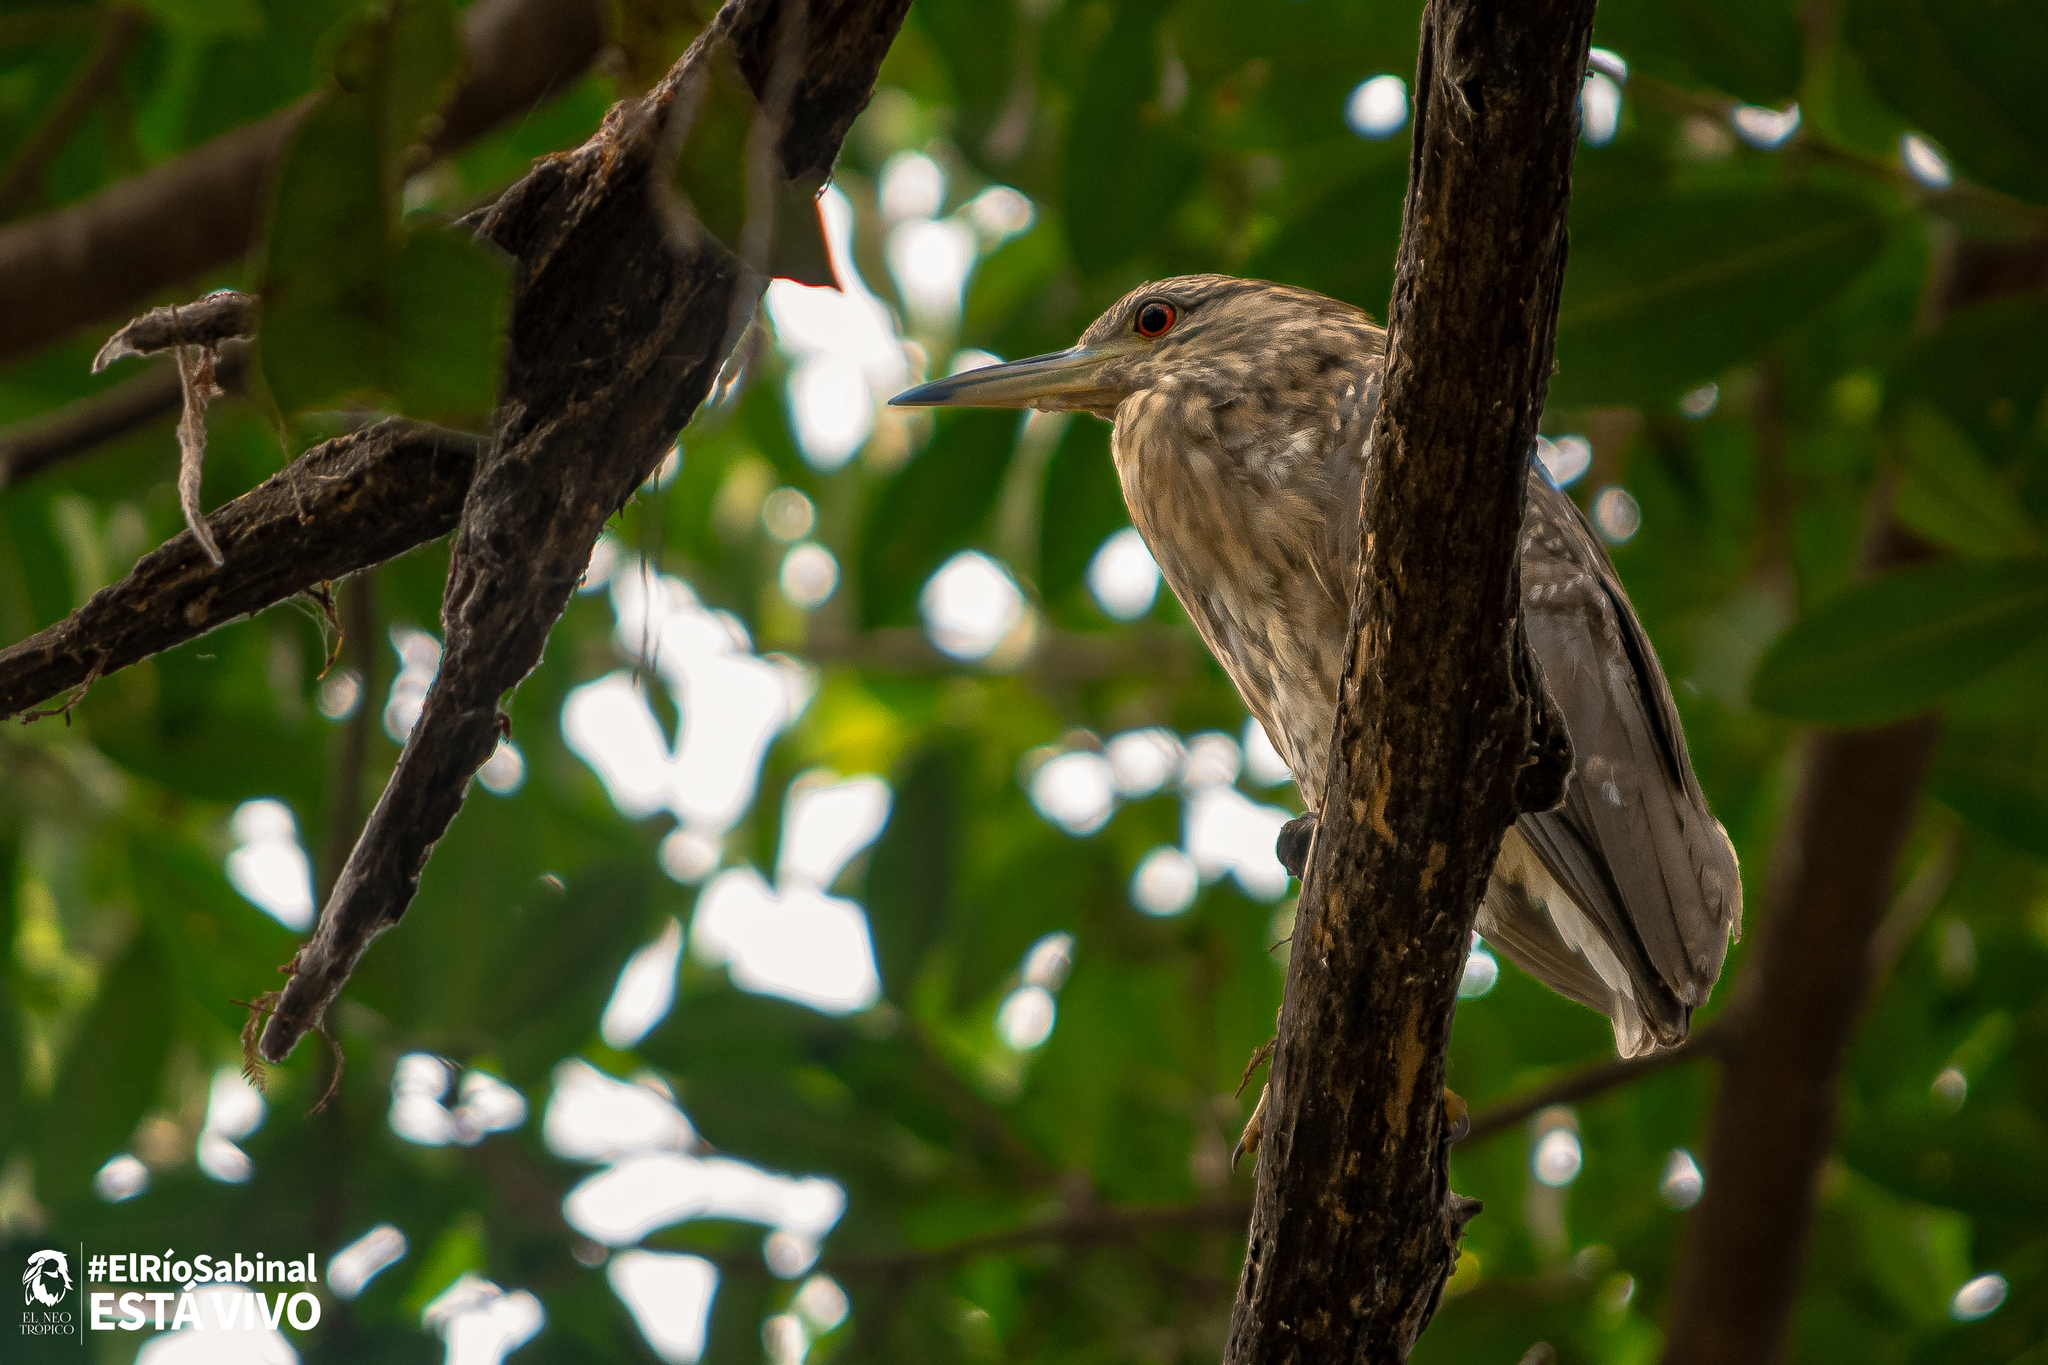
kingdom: Animalia
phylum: Chordata
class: Aves
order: Pelecaniformes
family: Ardeidae
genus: Nycticorax
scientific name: Nycticorax nycticorax
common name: Black-crowned night heron
